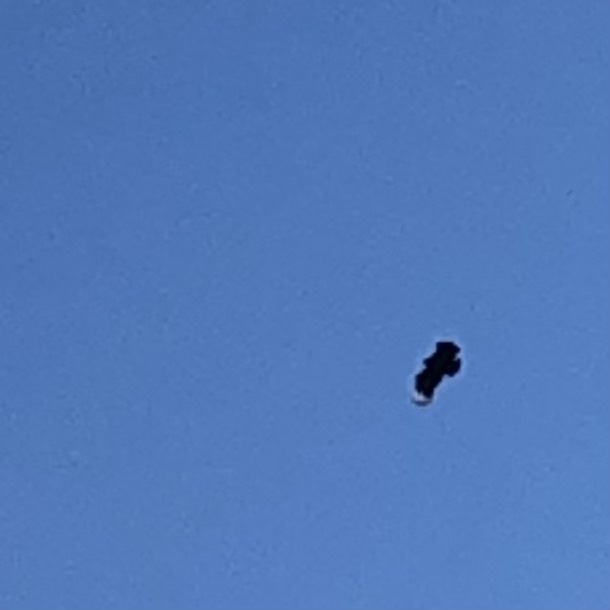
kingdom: Animalia
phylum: Chordata
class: Aves
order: Accipitriformes
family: Cathartidae
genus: Coragyps
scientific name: Coragyps atratus
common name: Black vulture
